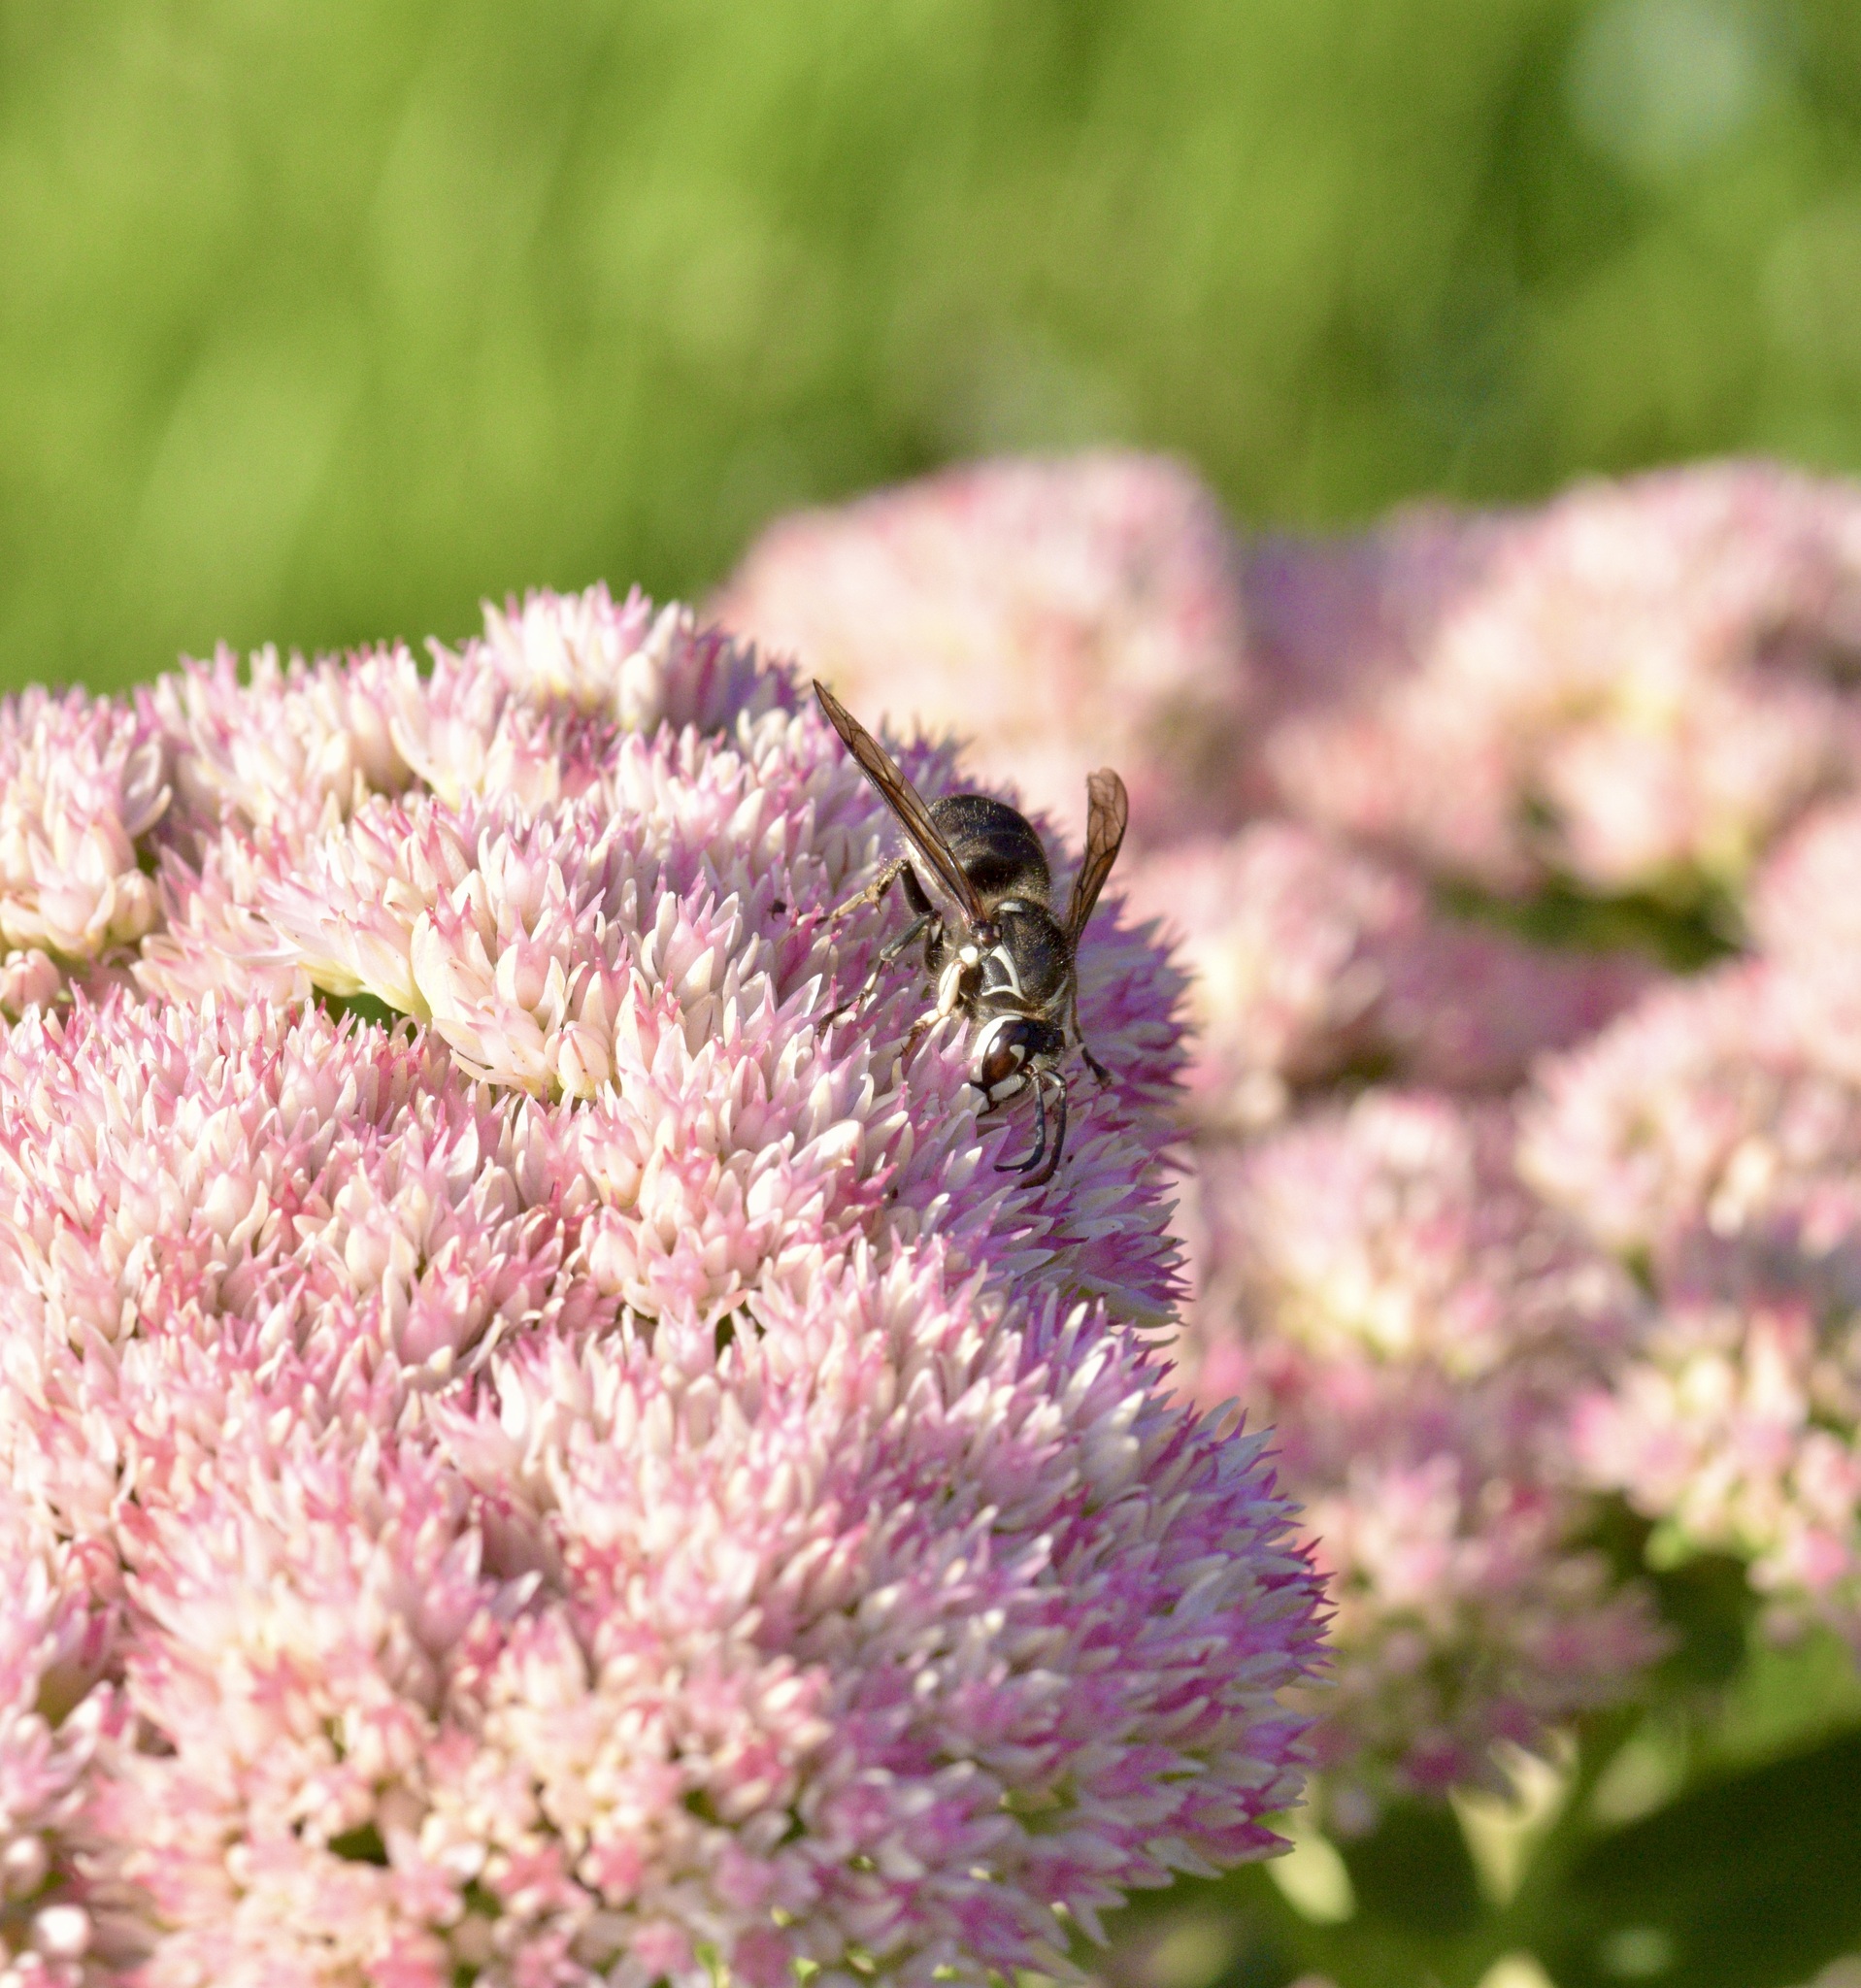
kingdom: Animalia
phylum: Arthropoda
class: Insecta
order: Hymenoptera
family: Vespidae
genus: Dolichovespula
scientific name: Dolichovespula maculata
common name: Bald-faced hornet
